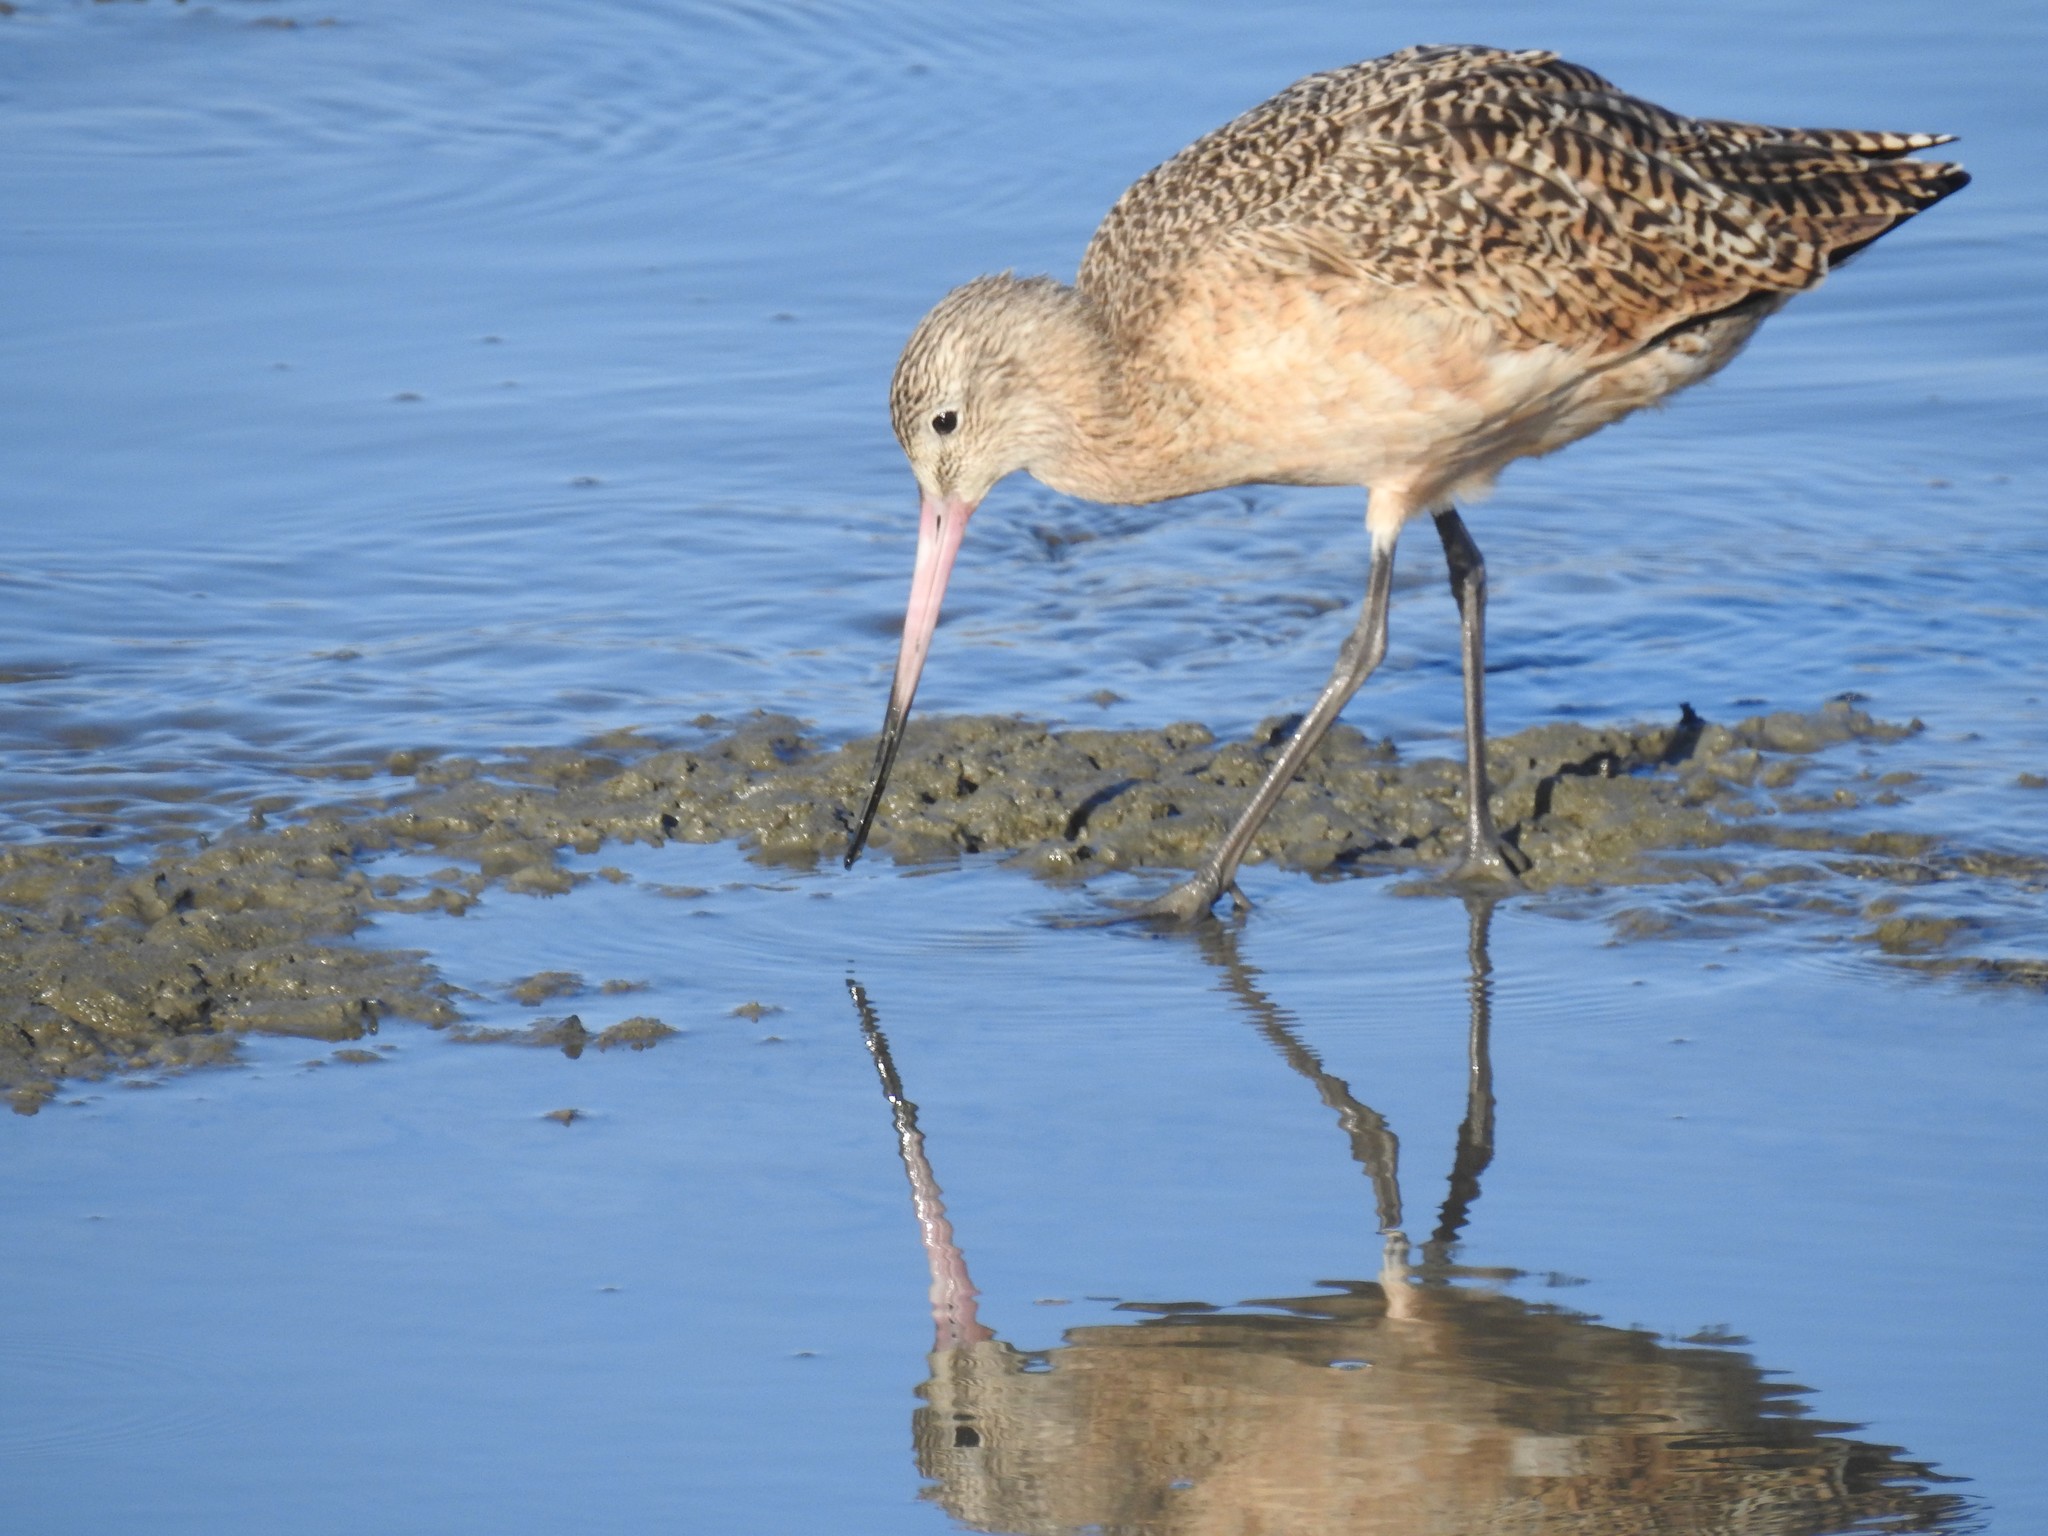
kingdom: Animalia
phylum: Chordata
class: Aves
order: Charadriiformes
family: Scolopacidae
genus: Limosa
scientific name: Limosa fedoa
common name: Marbled godwit
